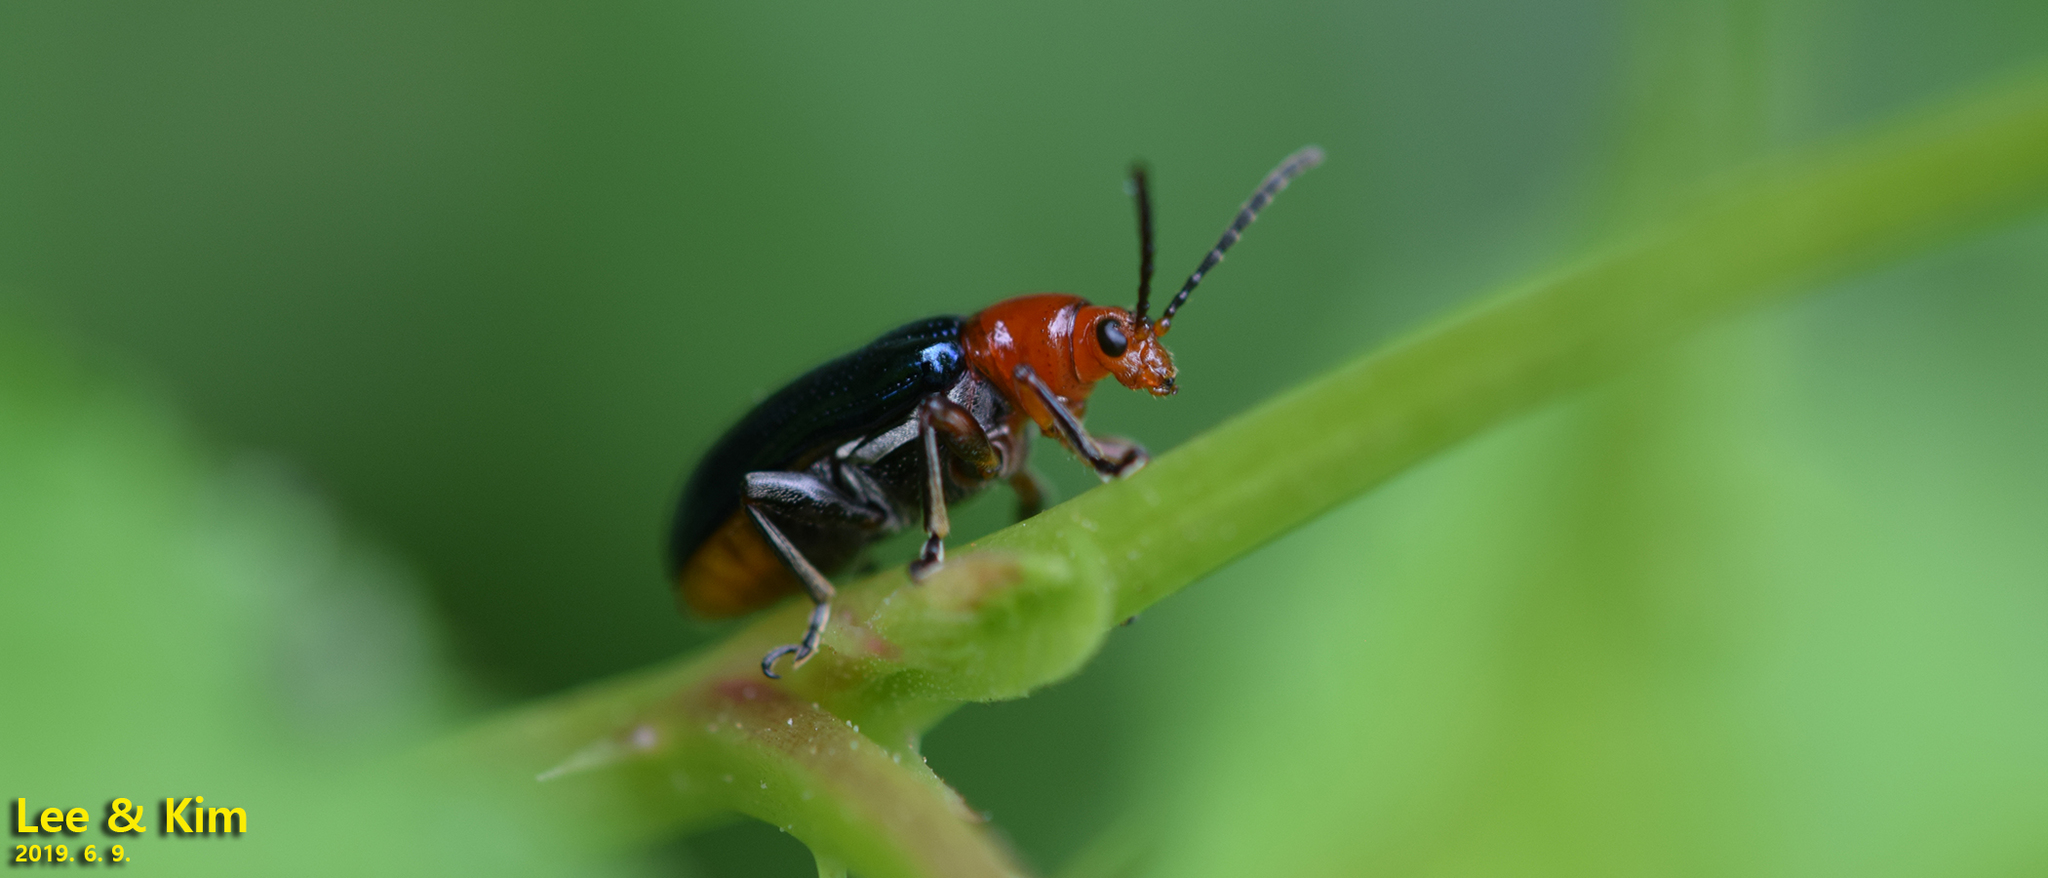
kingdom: Animalia
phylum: Arthropoda
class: Insecta
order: Coleoptera
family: Chrysomelidae
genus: Lema
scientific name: Lema fortunei
